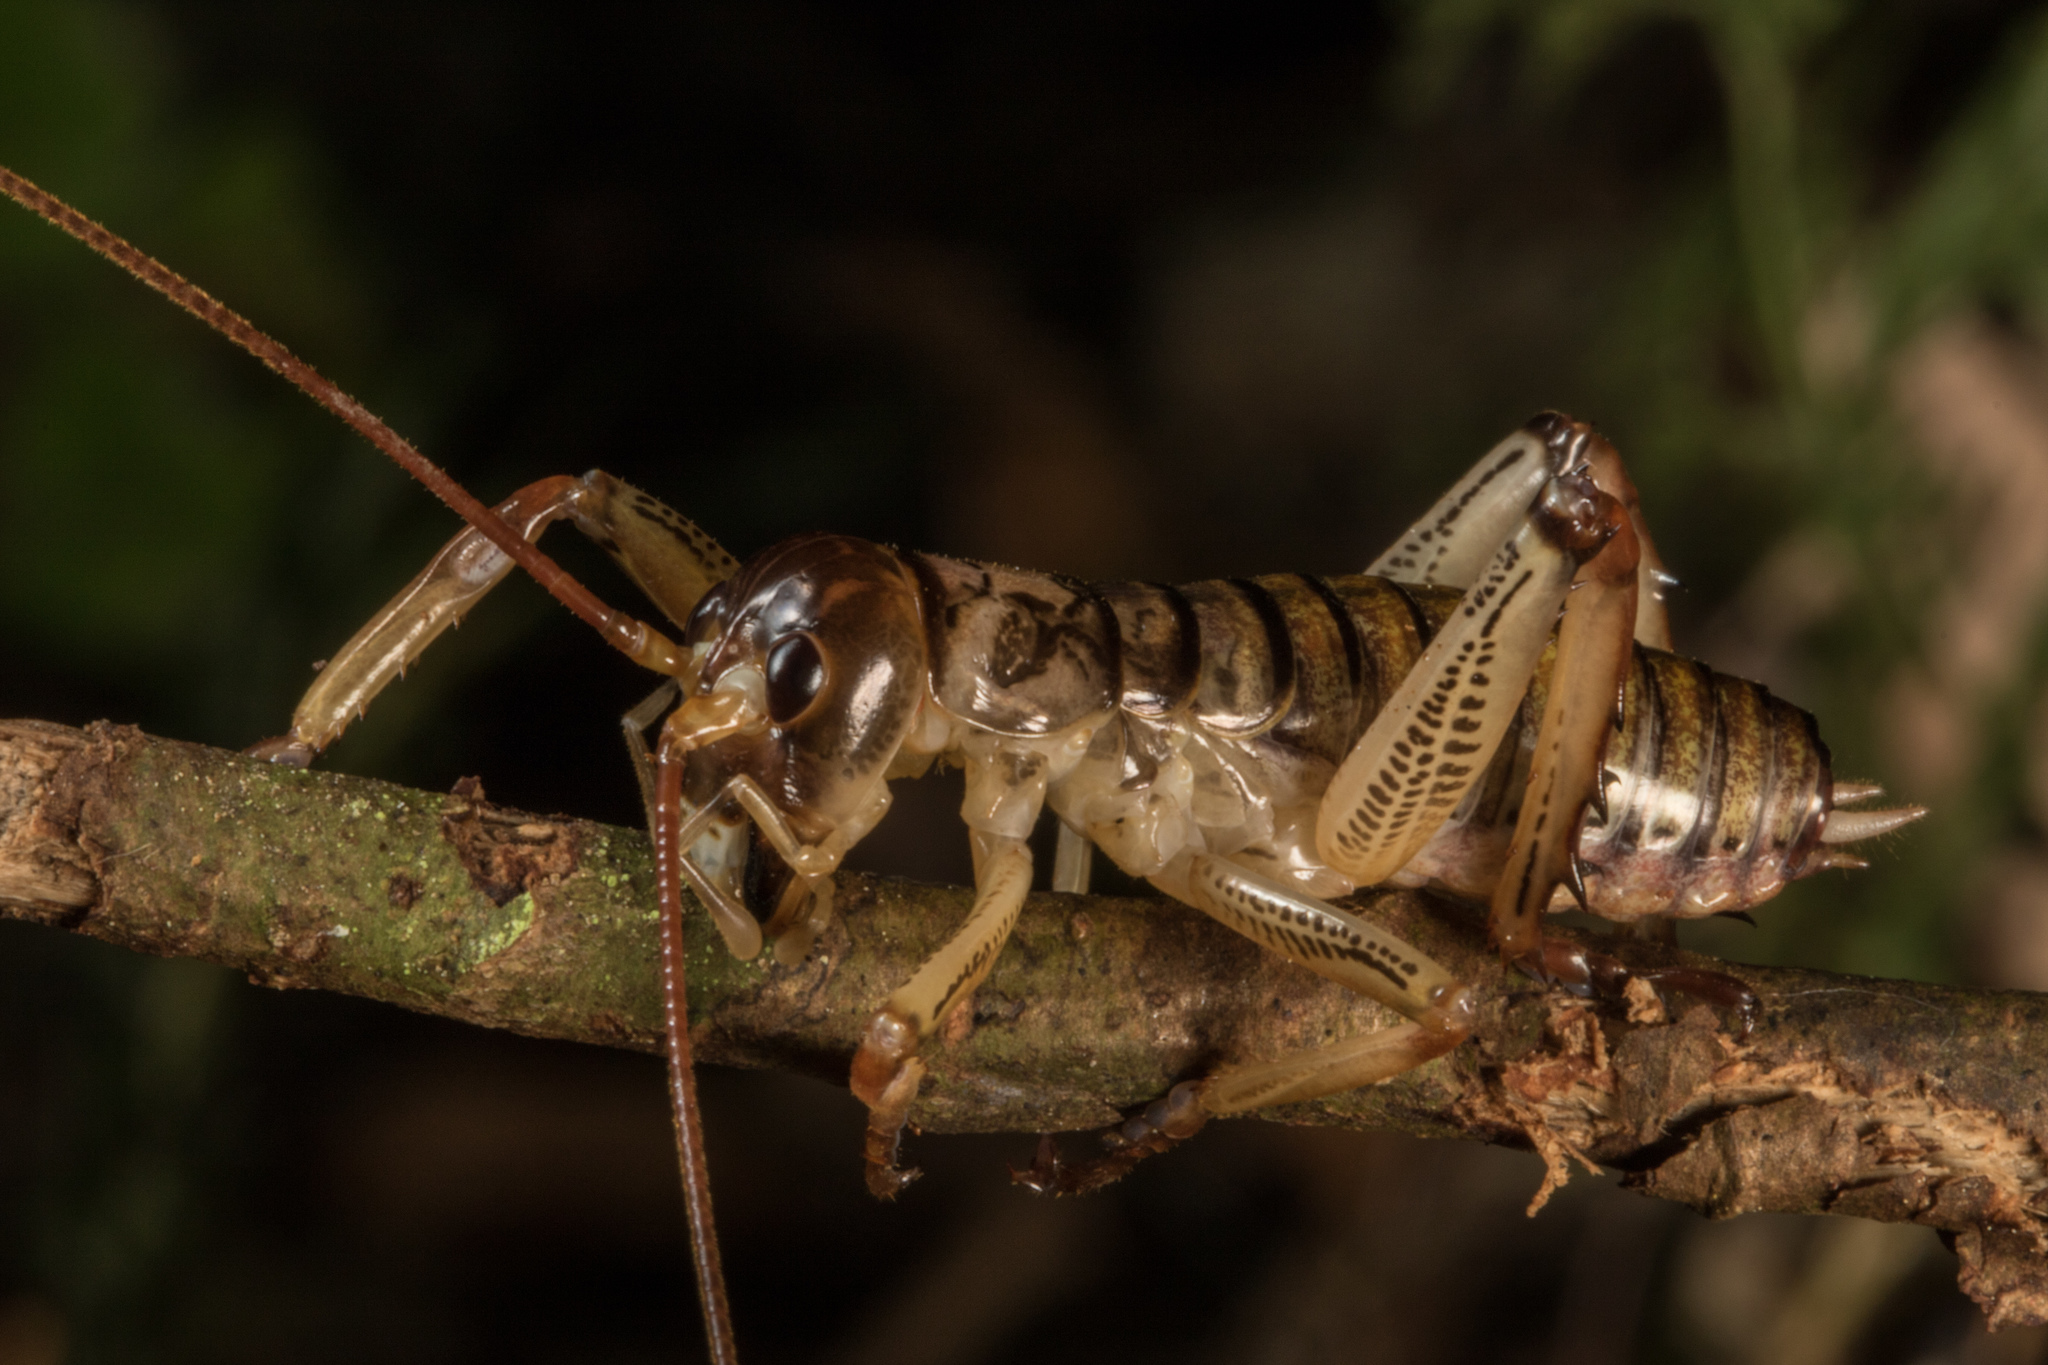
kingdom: Animalia
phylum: Arthropoda
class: Insecta
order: Orthoptera
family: Anostostomatidae
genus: Hemideina
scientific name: Hemideina thoracica
